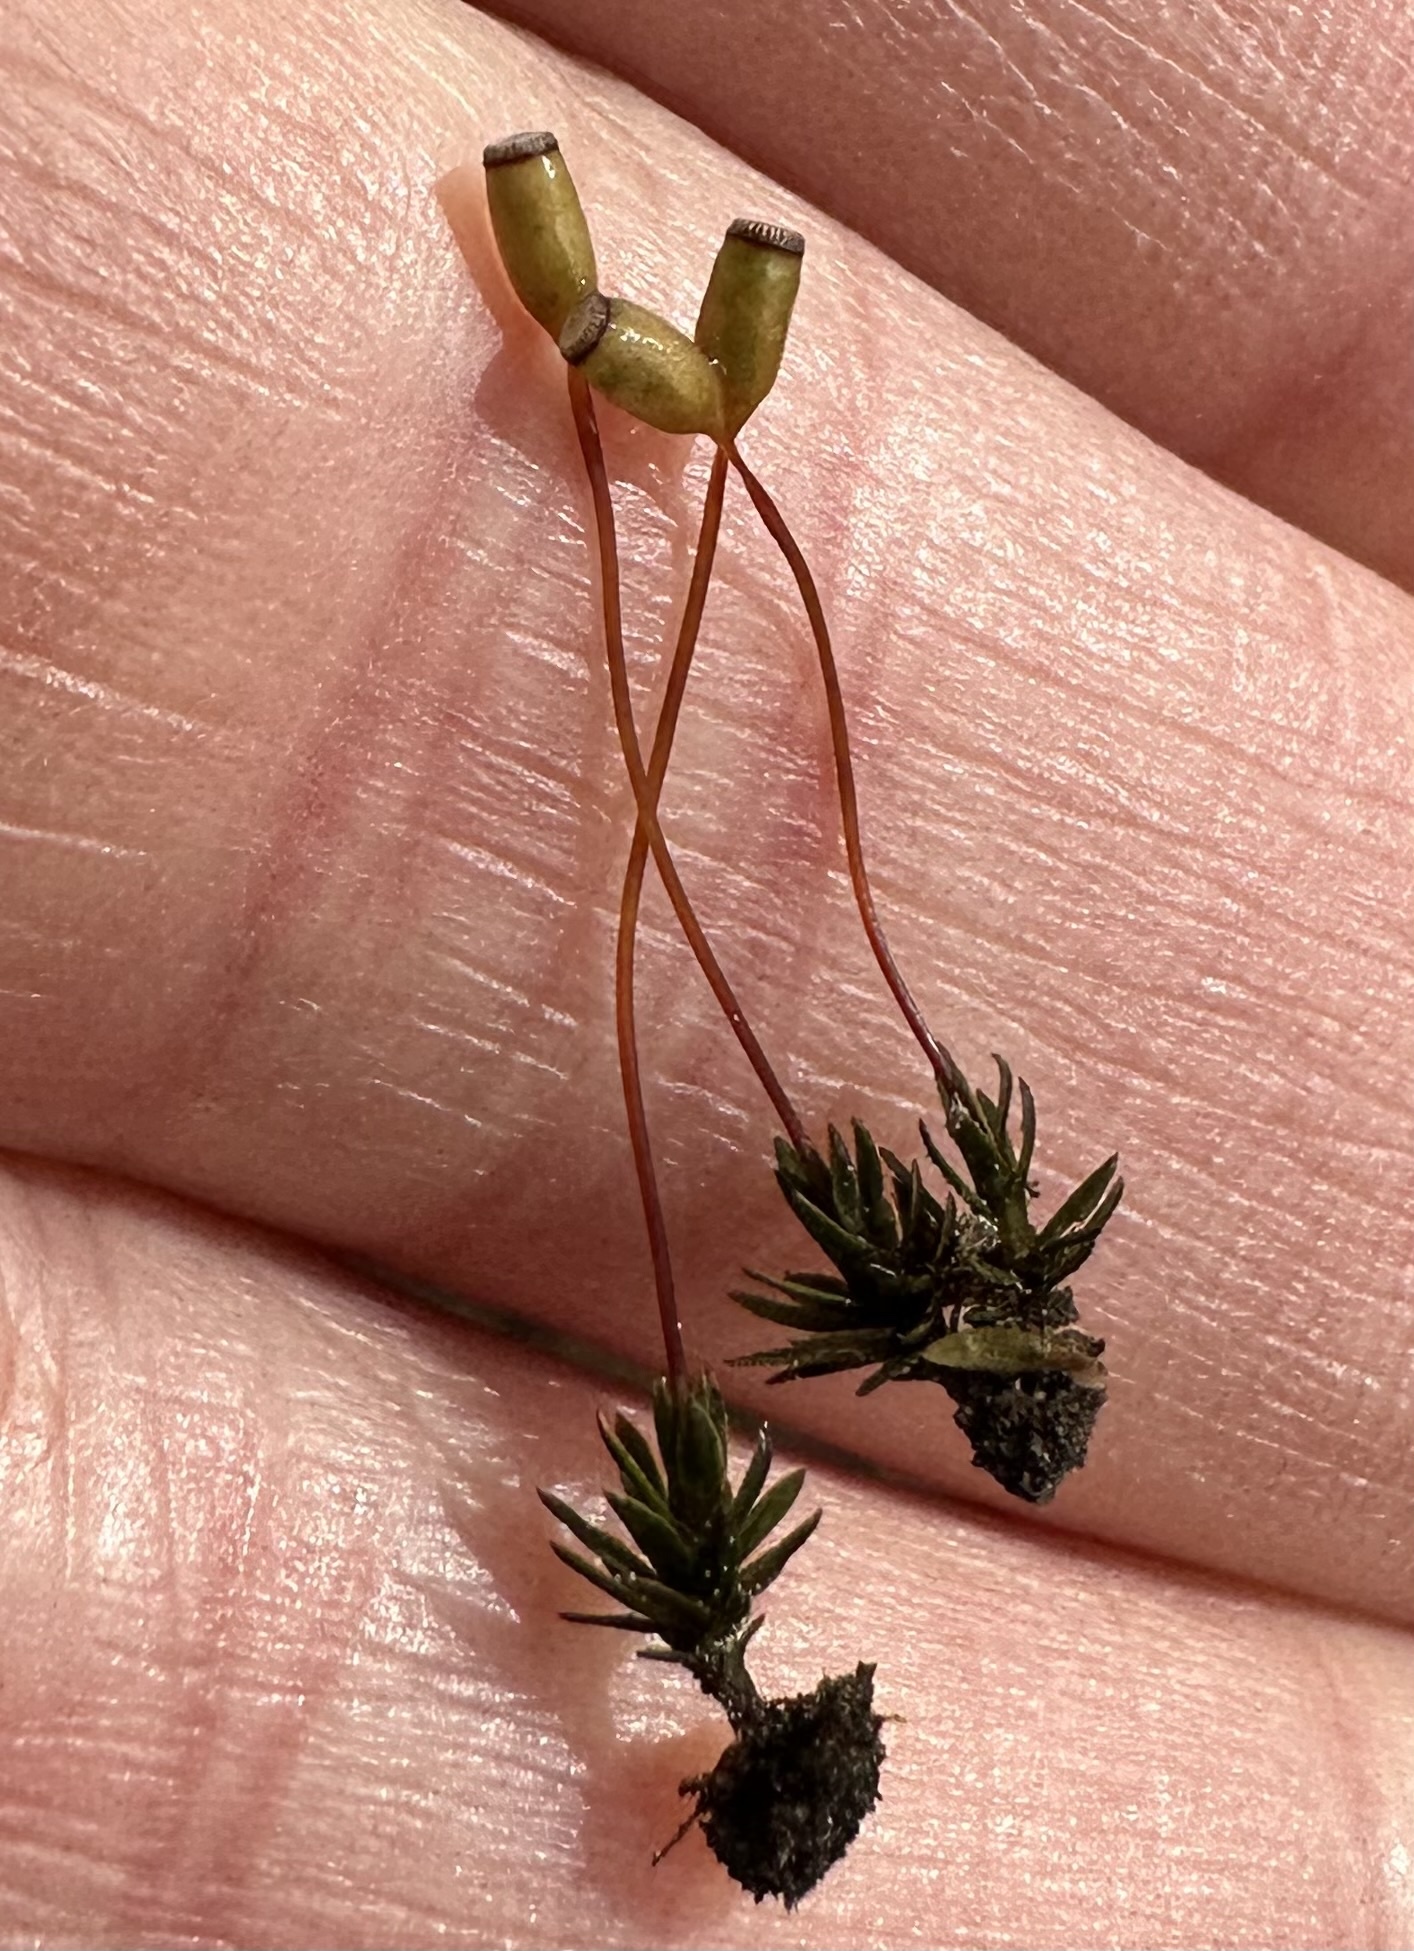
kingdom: Plantae
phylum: Bryophyta
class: Polytrichopsida
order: Polytrichales
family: Polytrichaceae
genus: Pogonatum
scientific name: Pogonatum aloides
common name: Aloe haircap
